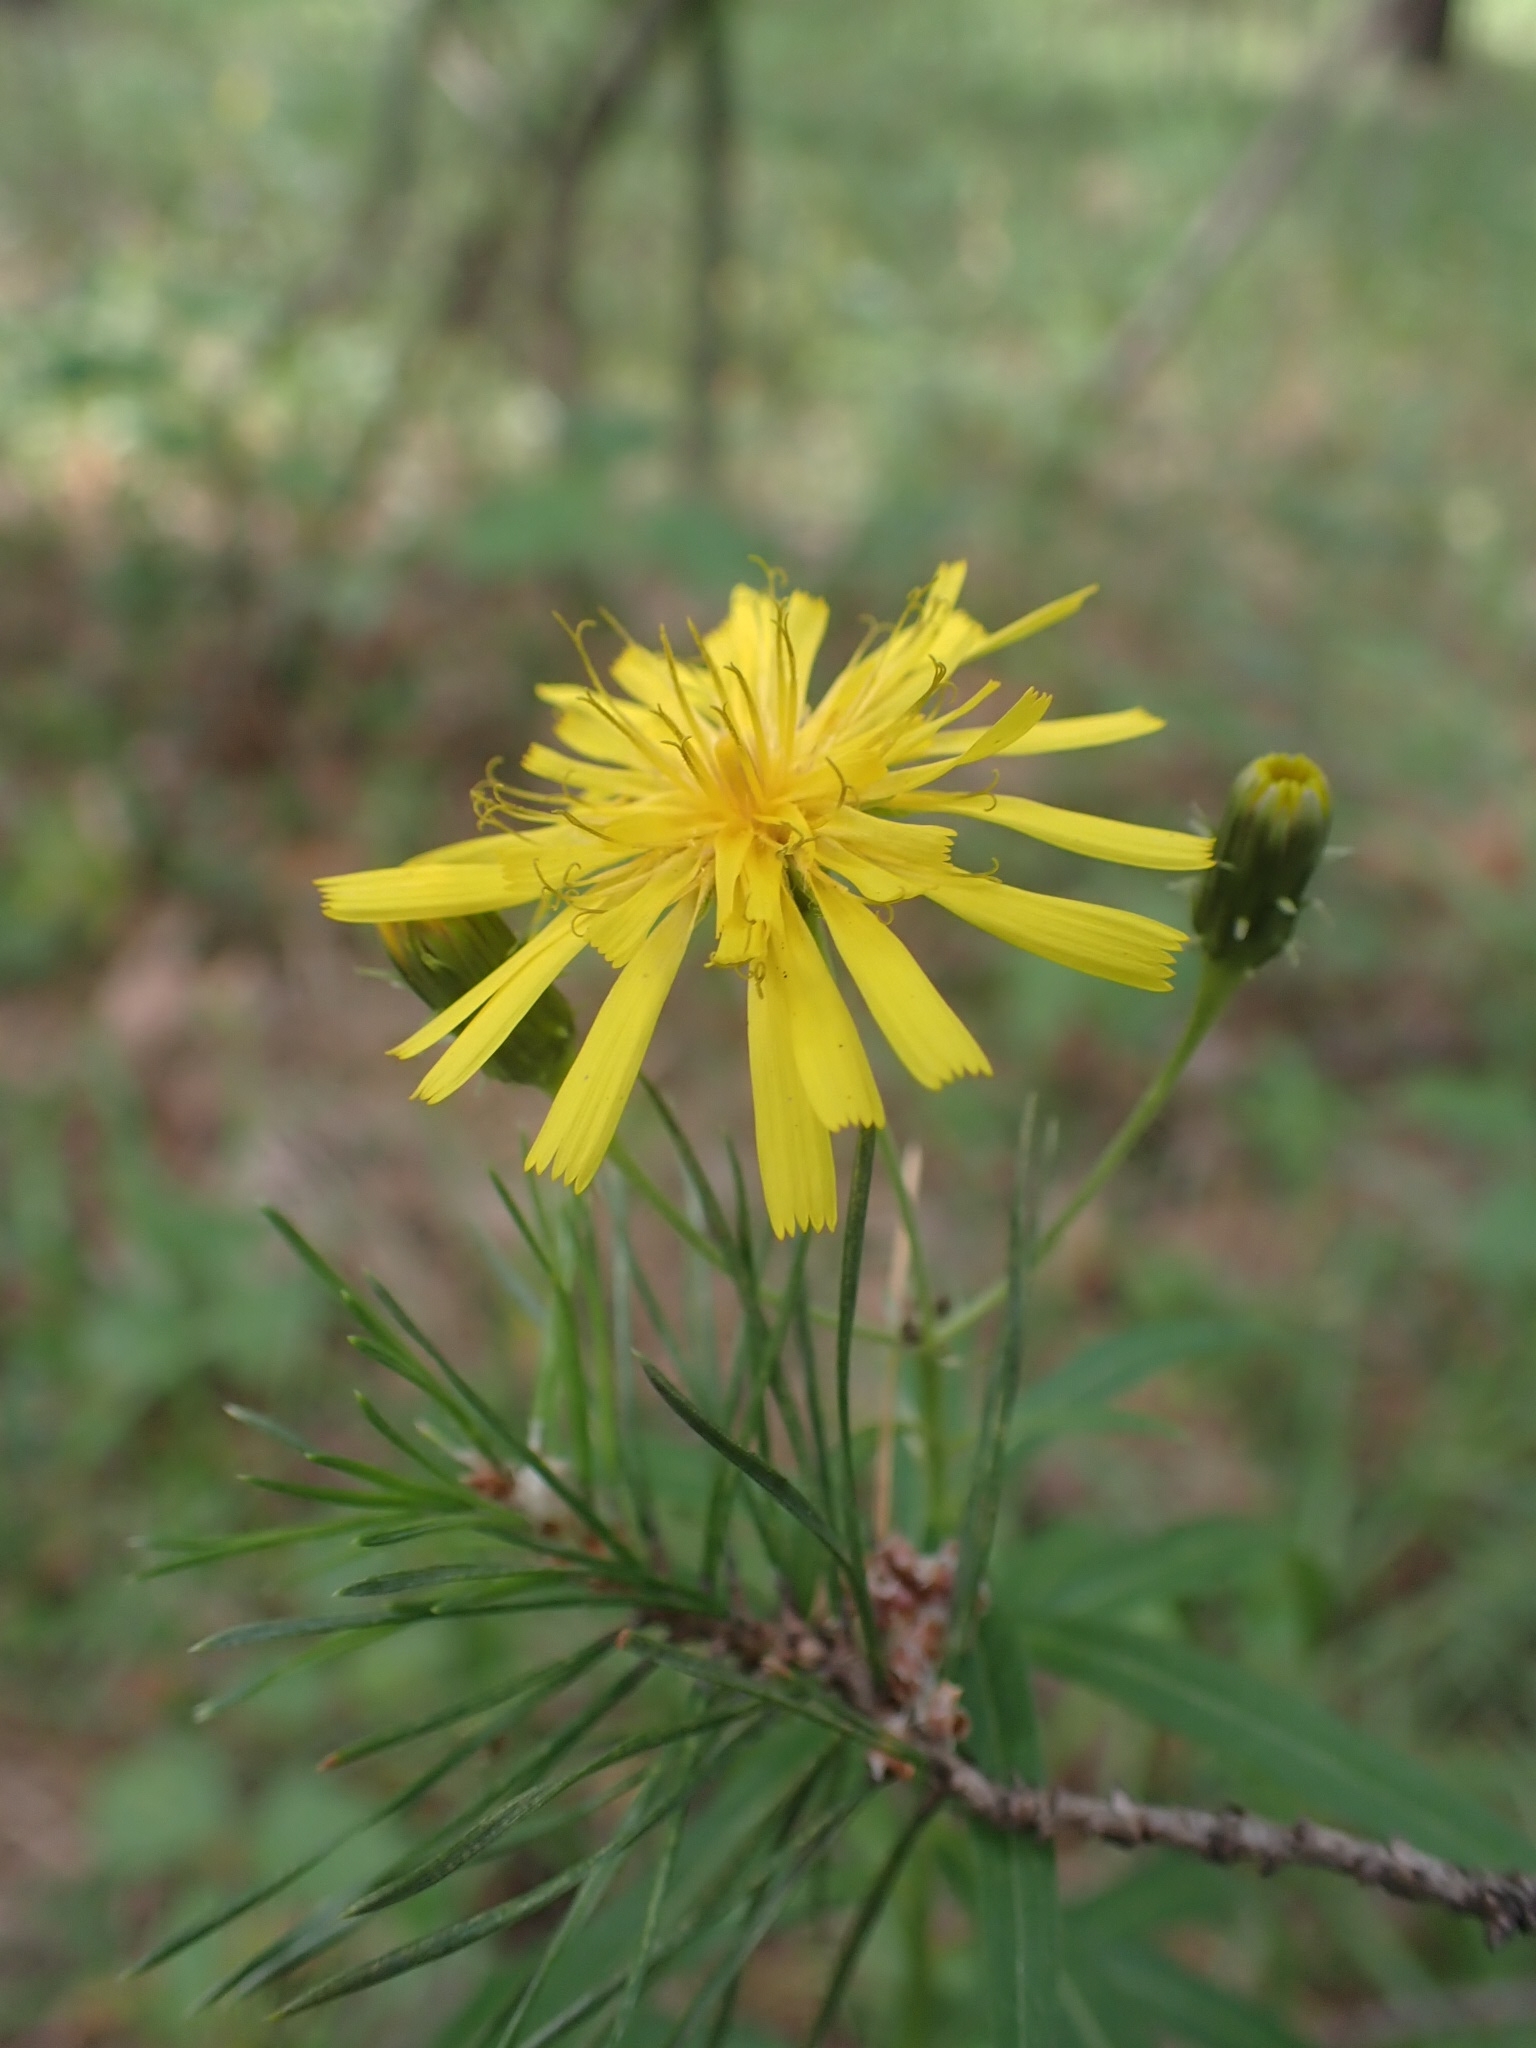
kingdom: Plantae
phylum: Tracheophyta
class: Magnoliopsida
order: Asterales
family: Asteraceae
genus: Hieracium
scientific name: Hieracium umbellatum
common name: Northern hawkweed
